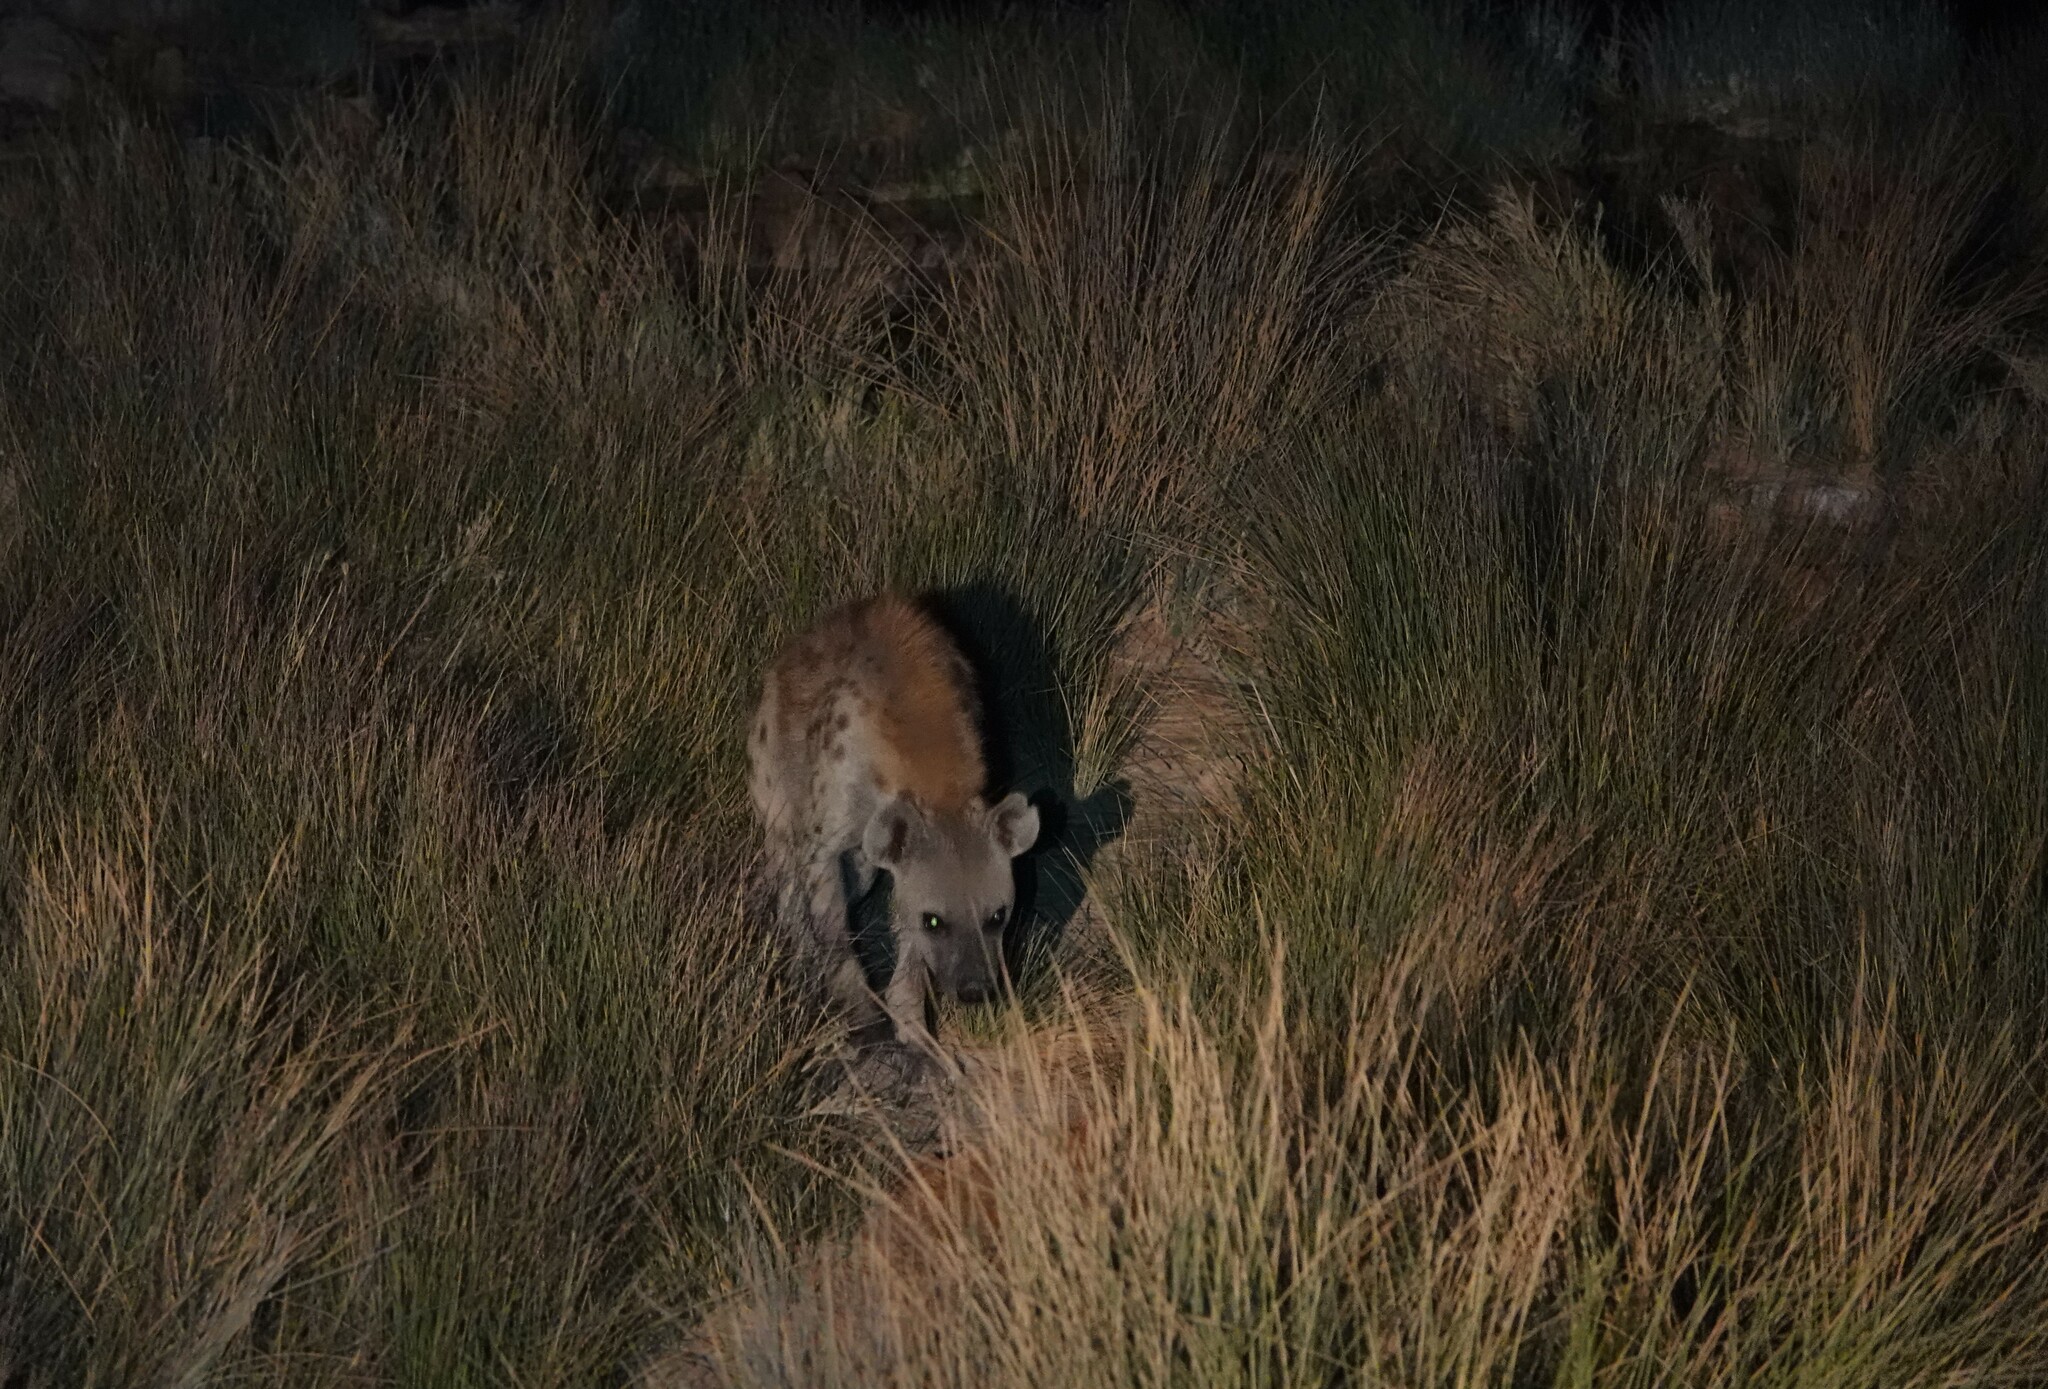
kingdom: Animalia
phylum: Chordata
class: Mammalia
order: Carnivora
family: Hyaenidae
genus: Crocuta
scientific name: Crocuta crocuta
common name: Spotted hyaena
